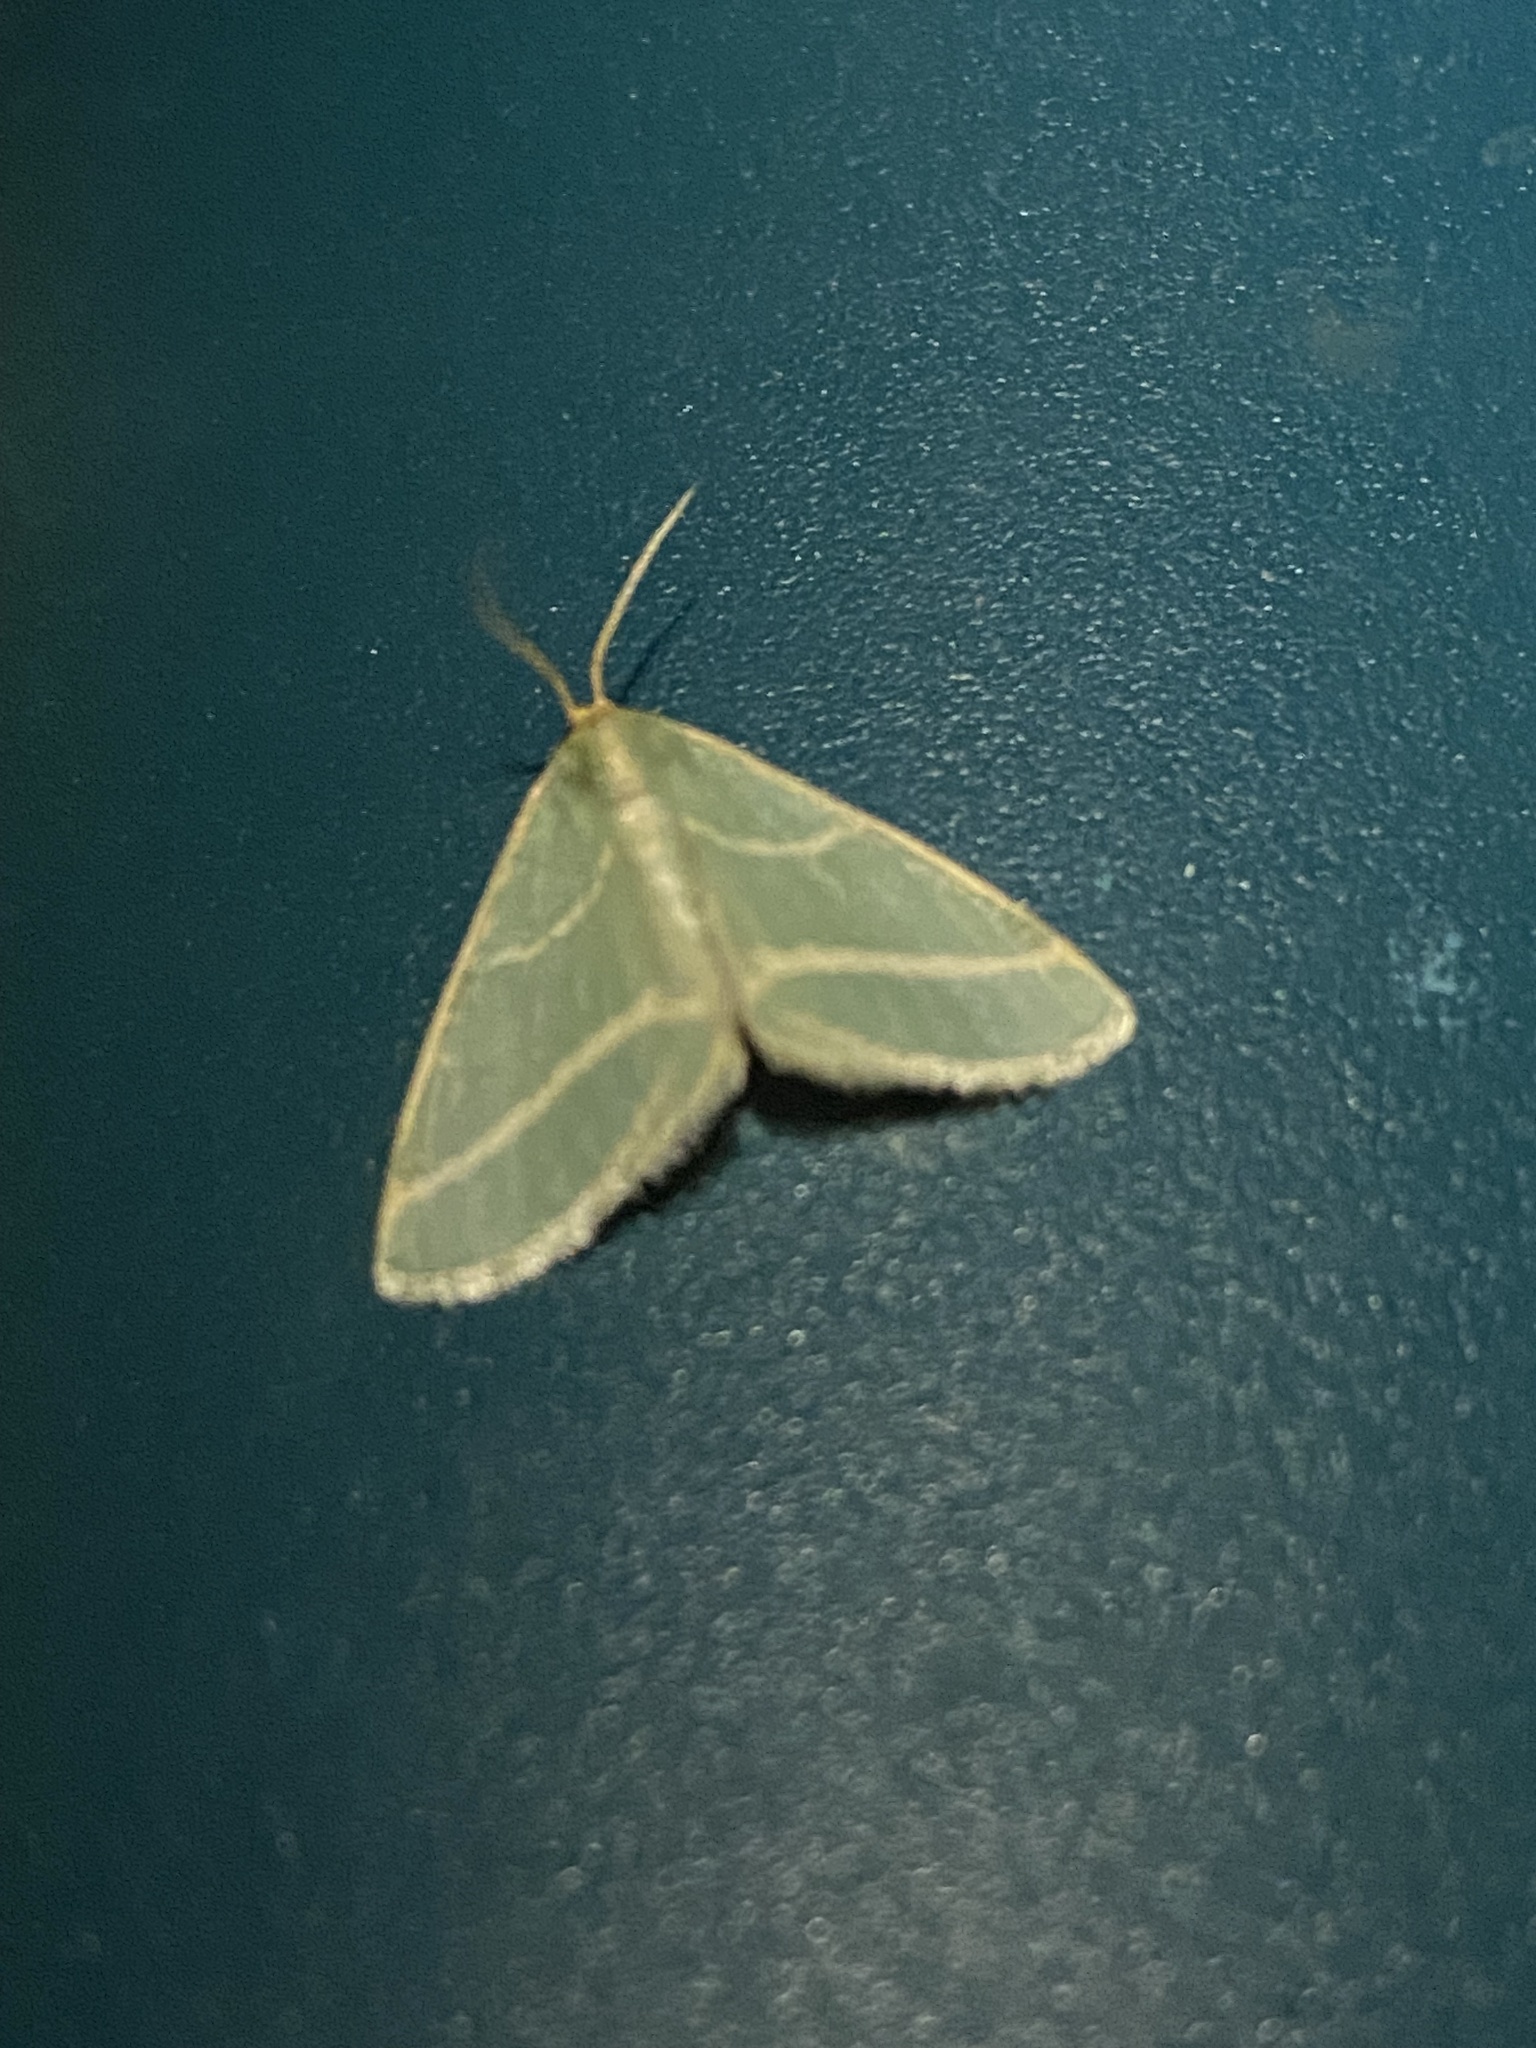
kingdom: Animalia
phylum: Arthropoda
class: Insecta
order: Lepidoptera
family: Geometridae
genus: Iulops
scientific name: Iulops argocrana
